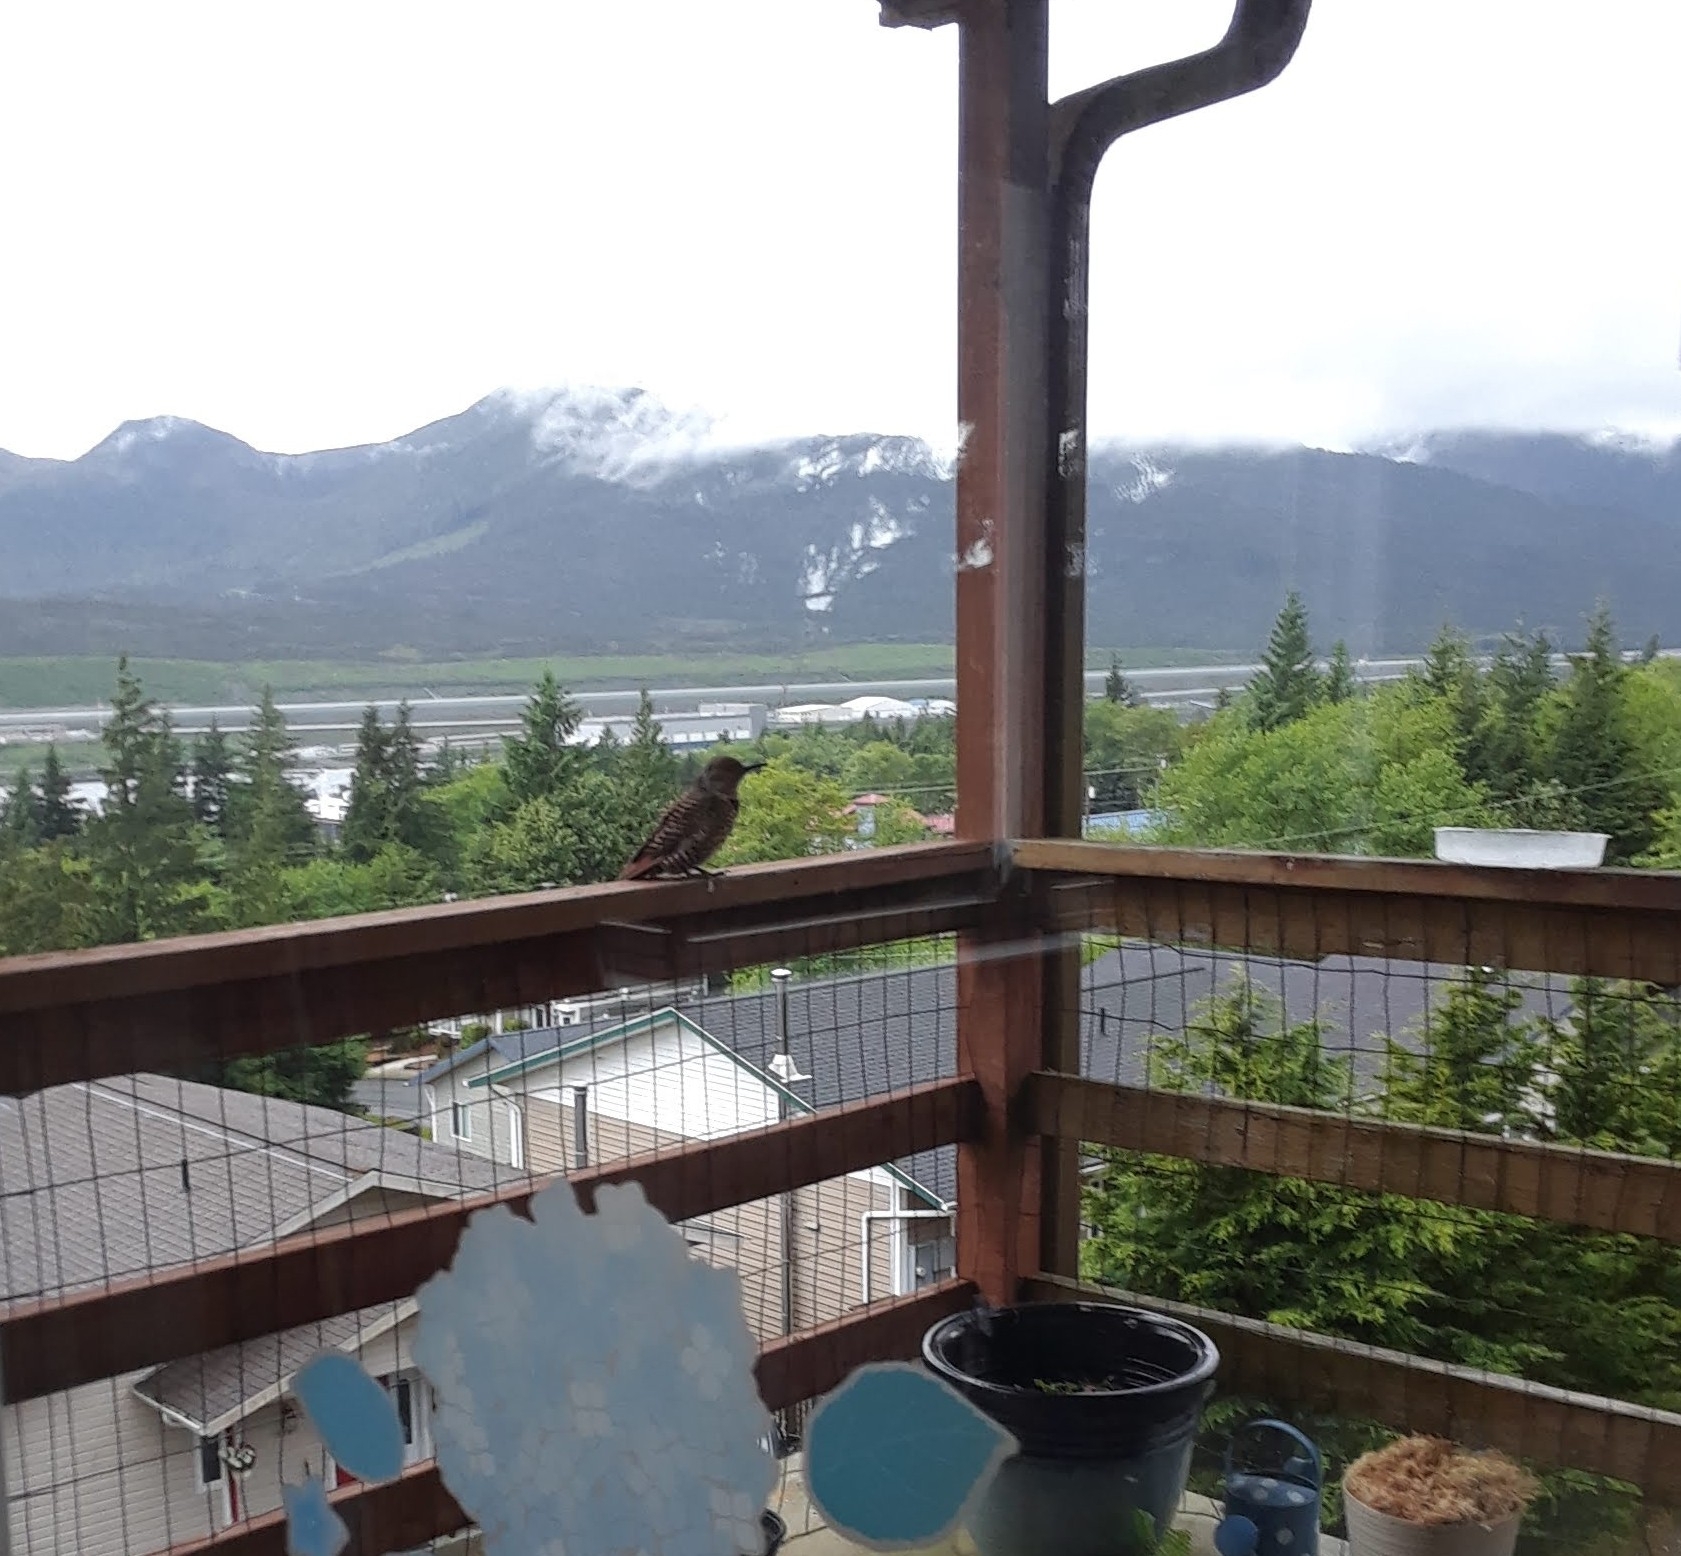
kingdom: Animalia
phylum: Chordata
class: Aves
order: Piciformes
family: Picidae
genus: Colaptes
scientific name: Colaptes auratus
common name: Northern flicker
